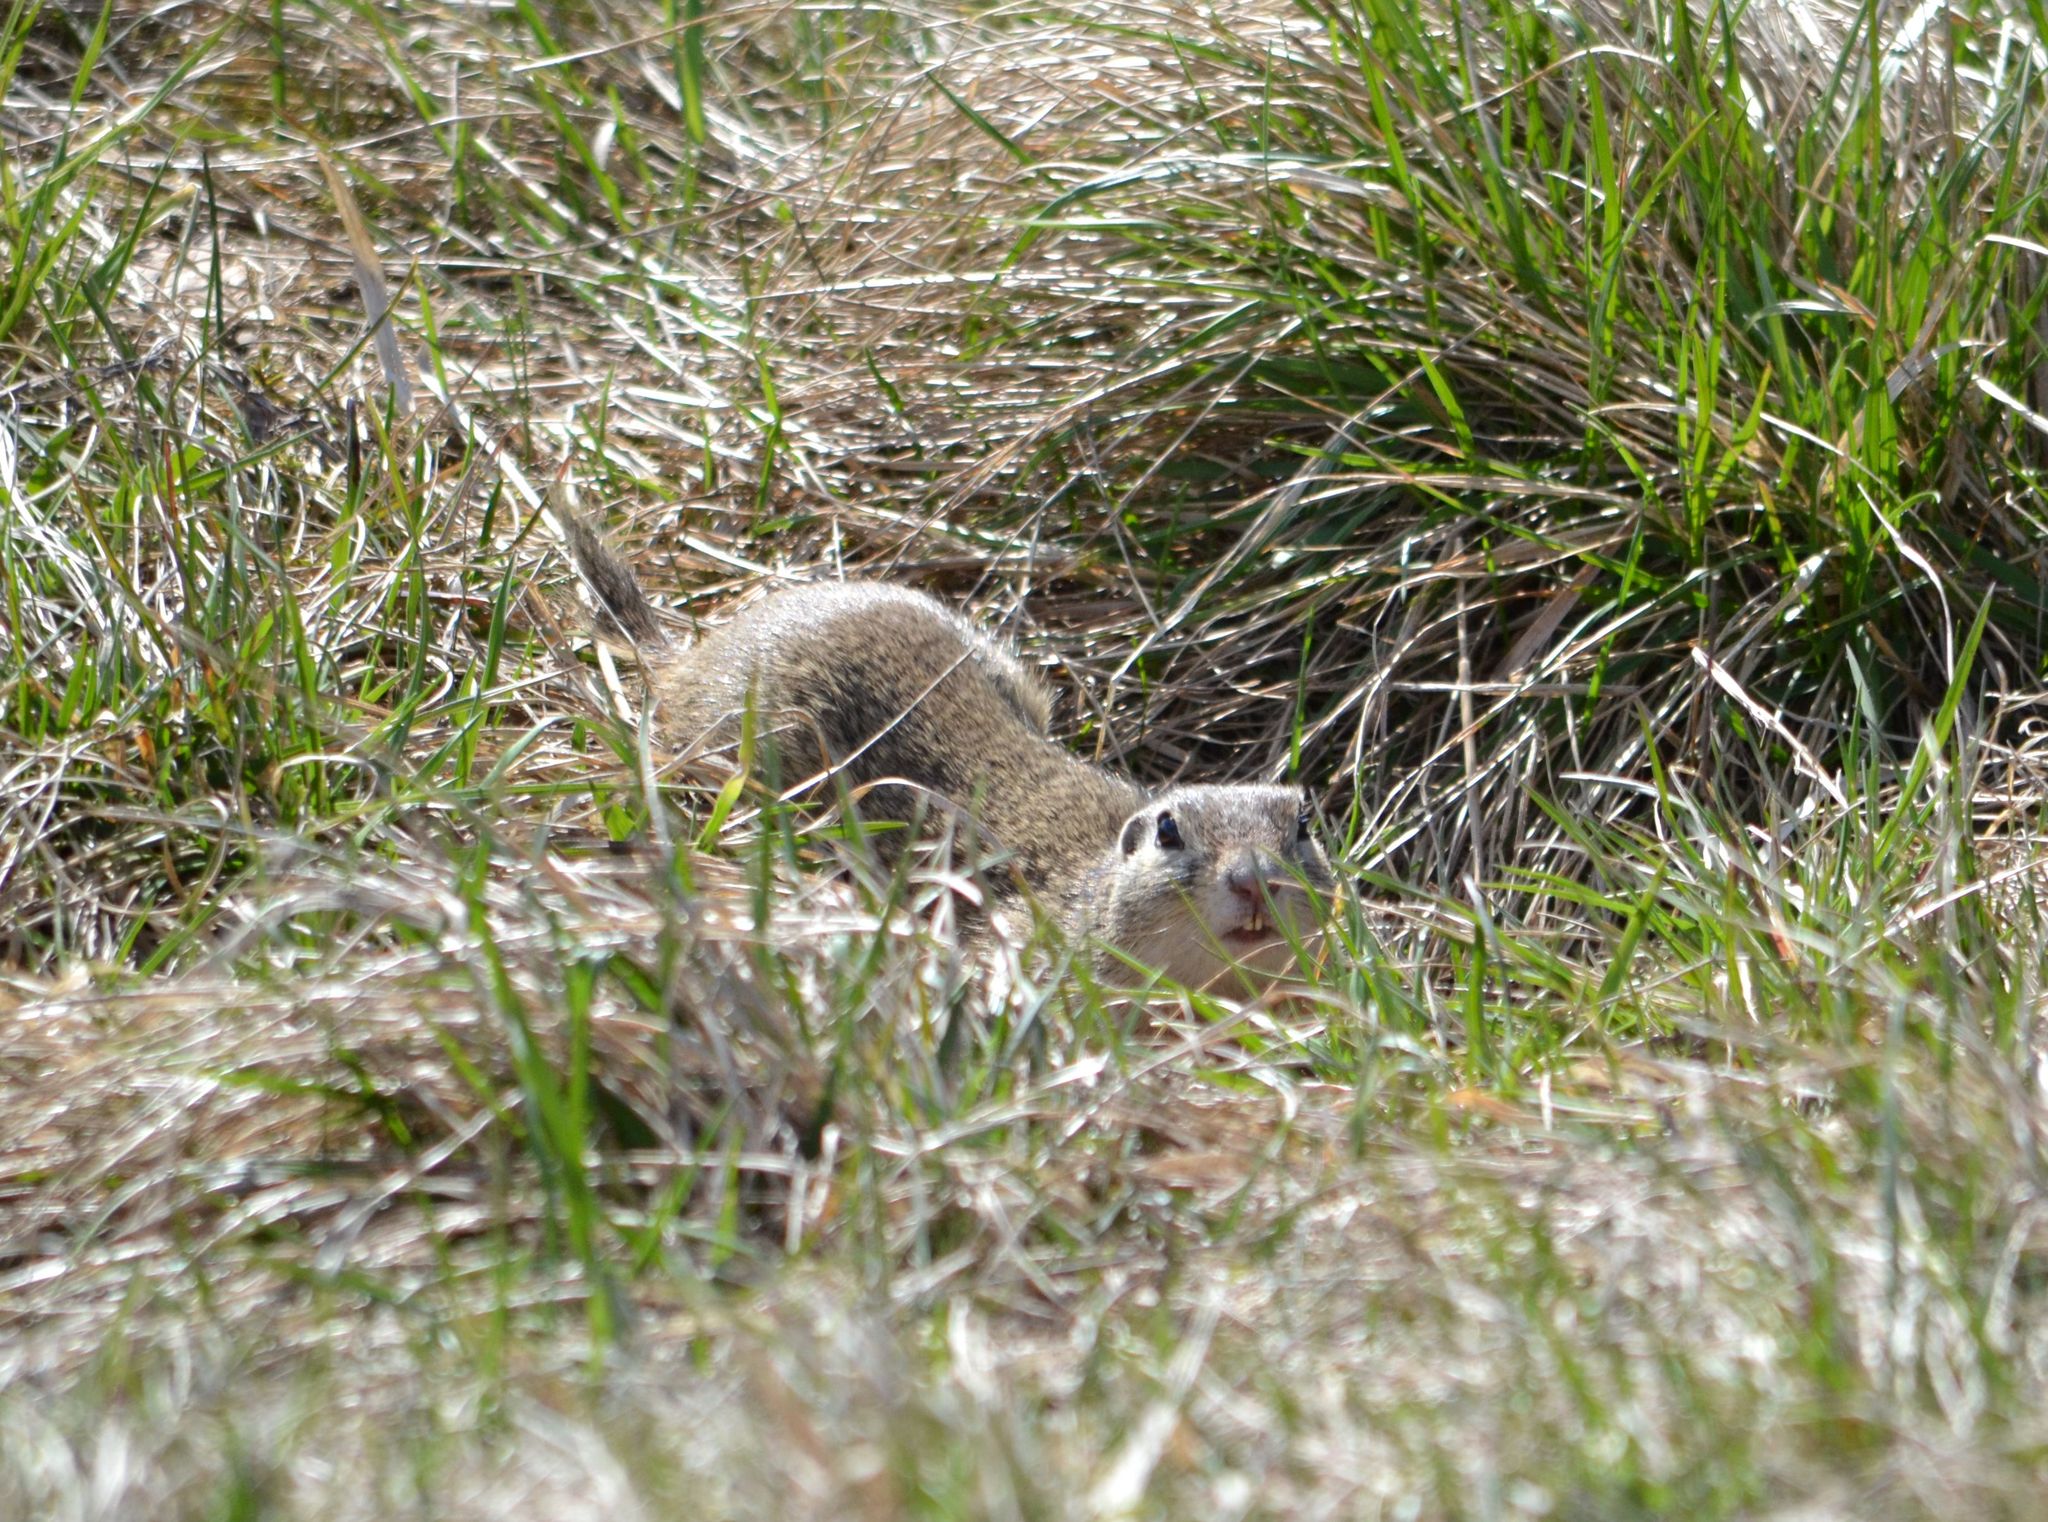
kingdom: Animalia
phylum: Chordata
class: Mammalia
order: Rodentia
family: Sciuridae
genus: Spermophilus
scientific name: Spermophilus citellus
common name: European ground squirrel
